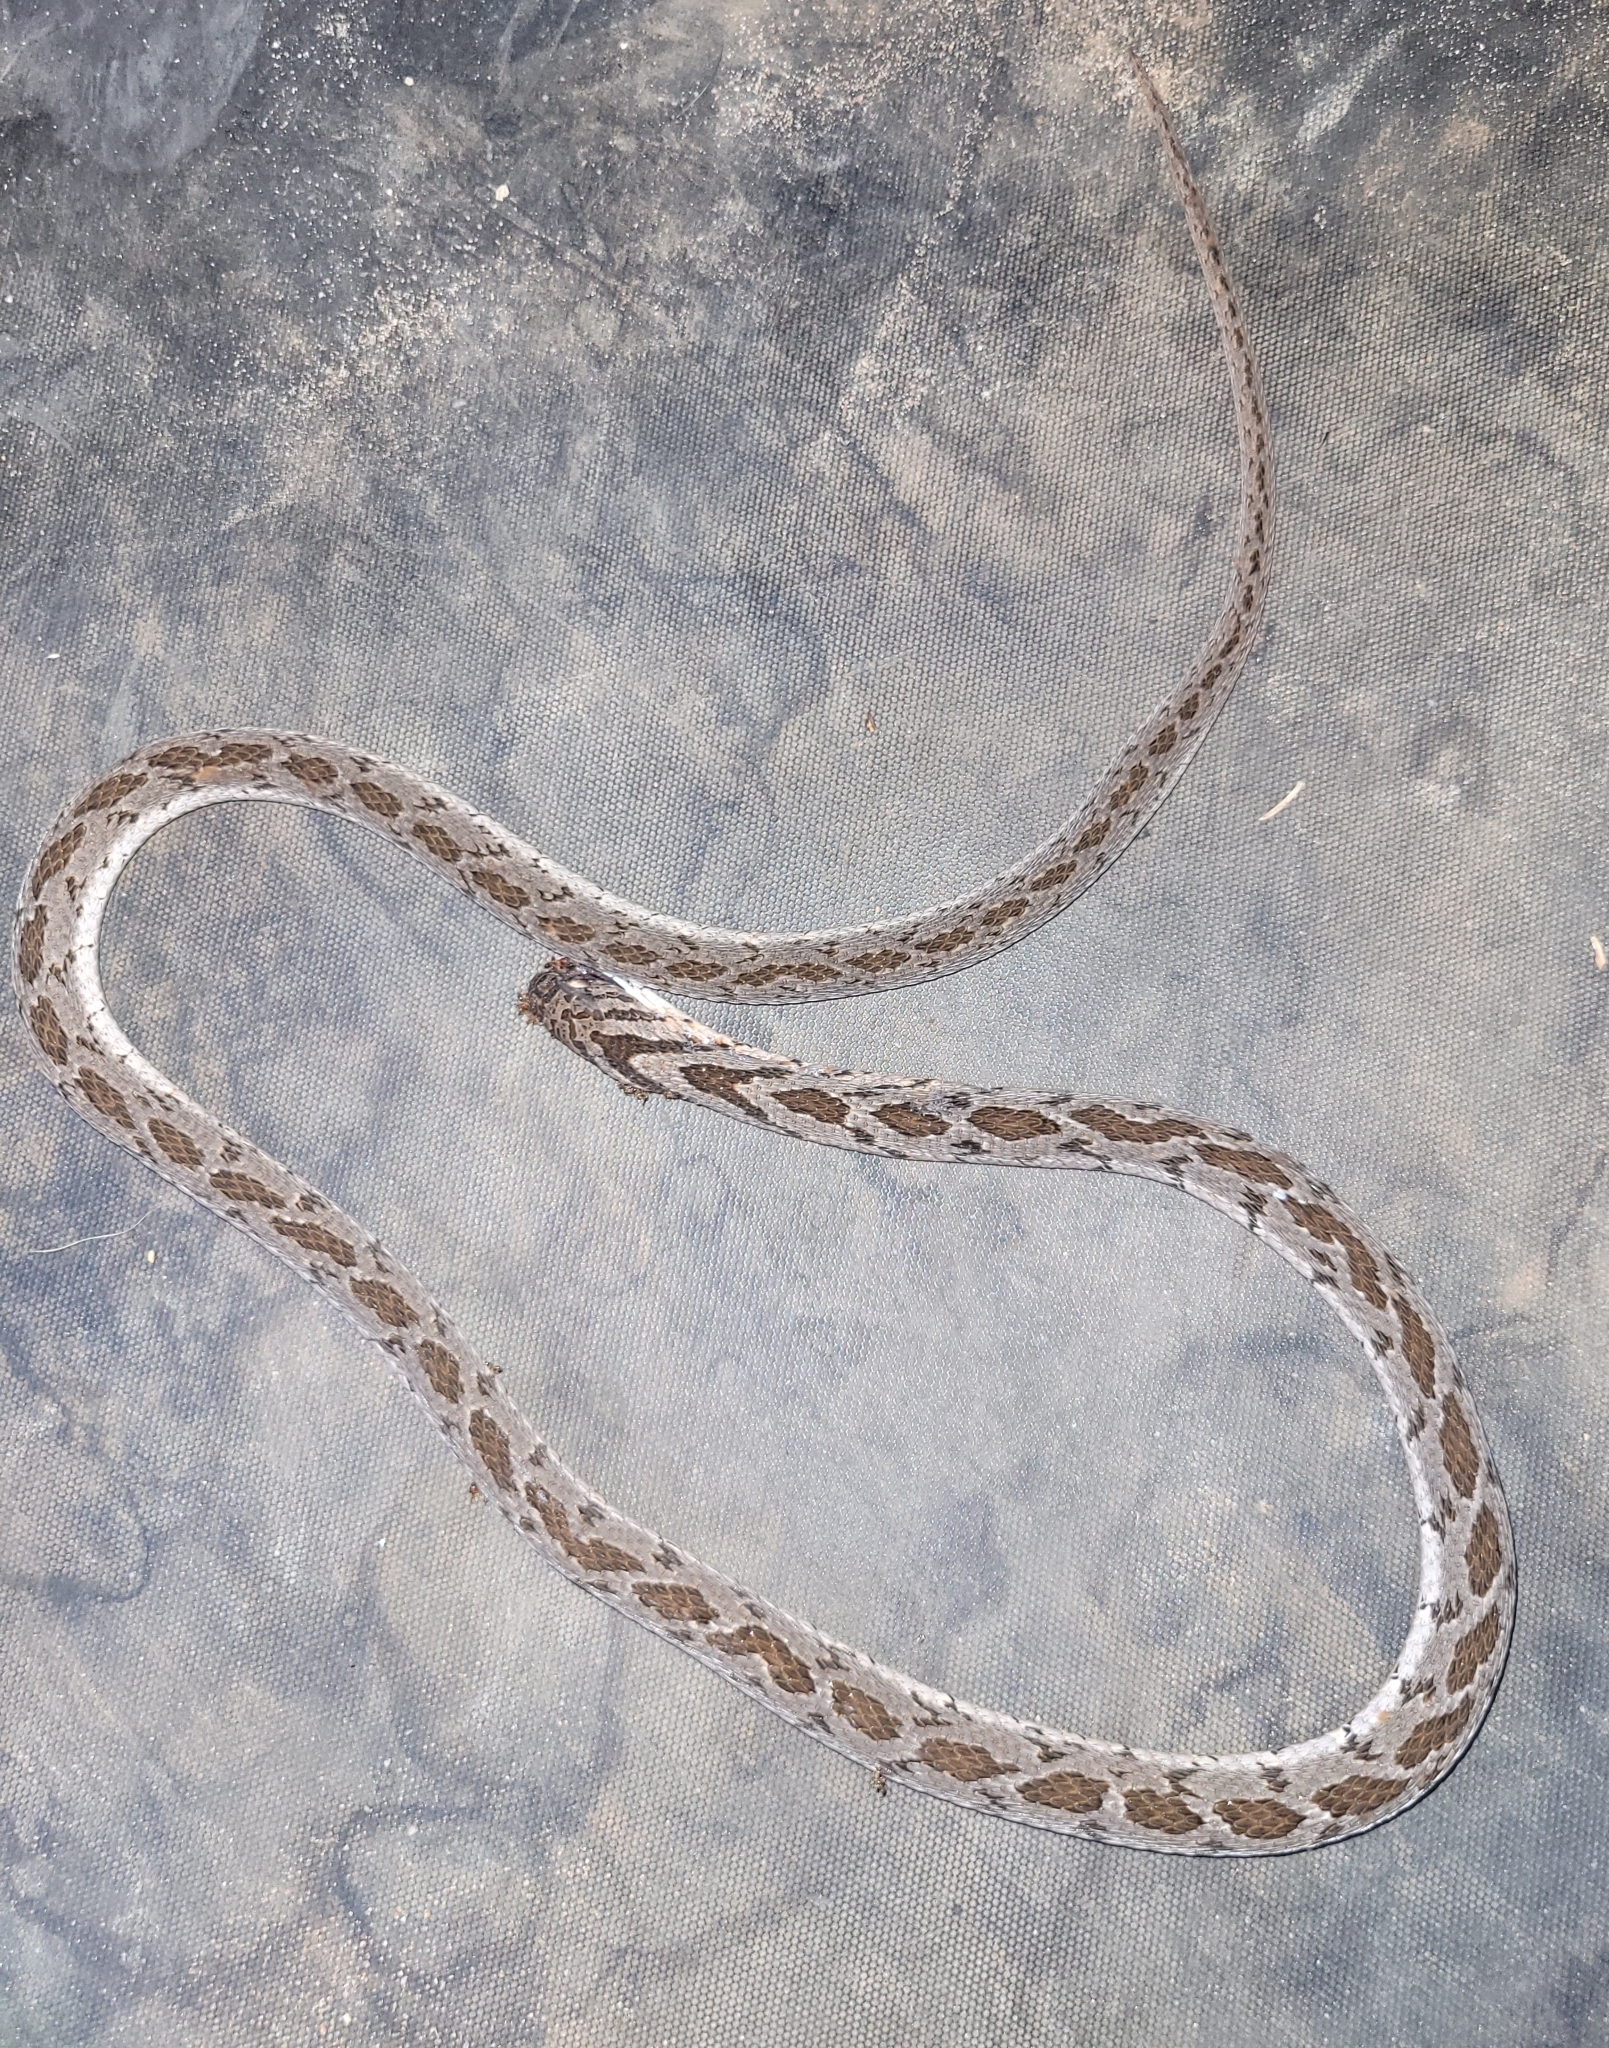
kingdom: Animalia
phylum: Chordata
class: Squamata
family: Colubridae
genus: Dasypeltis
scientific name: Dasypeltis scabra
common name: Common egg eater
